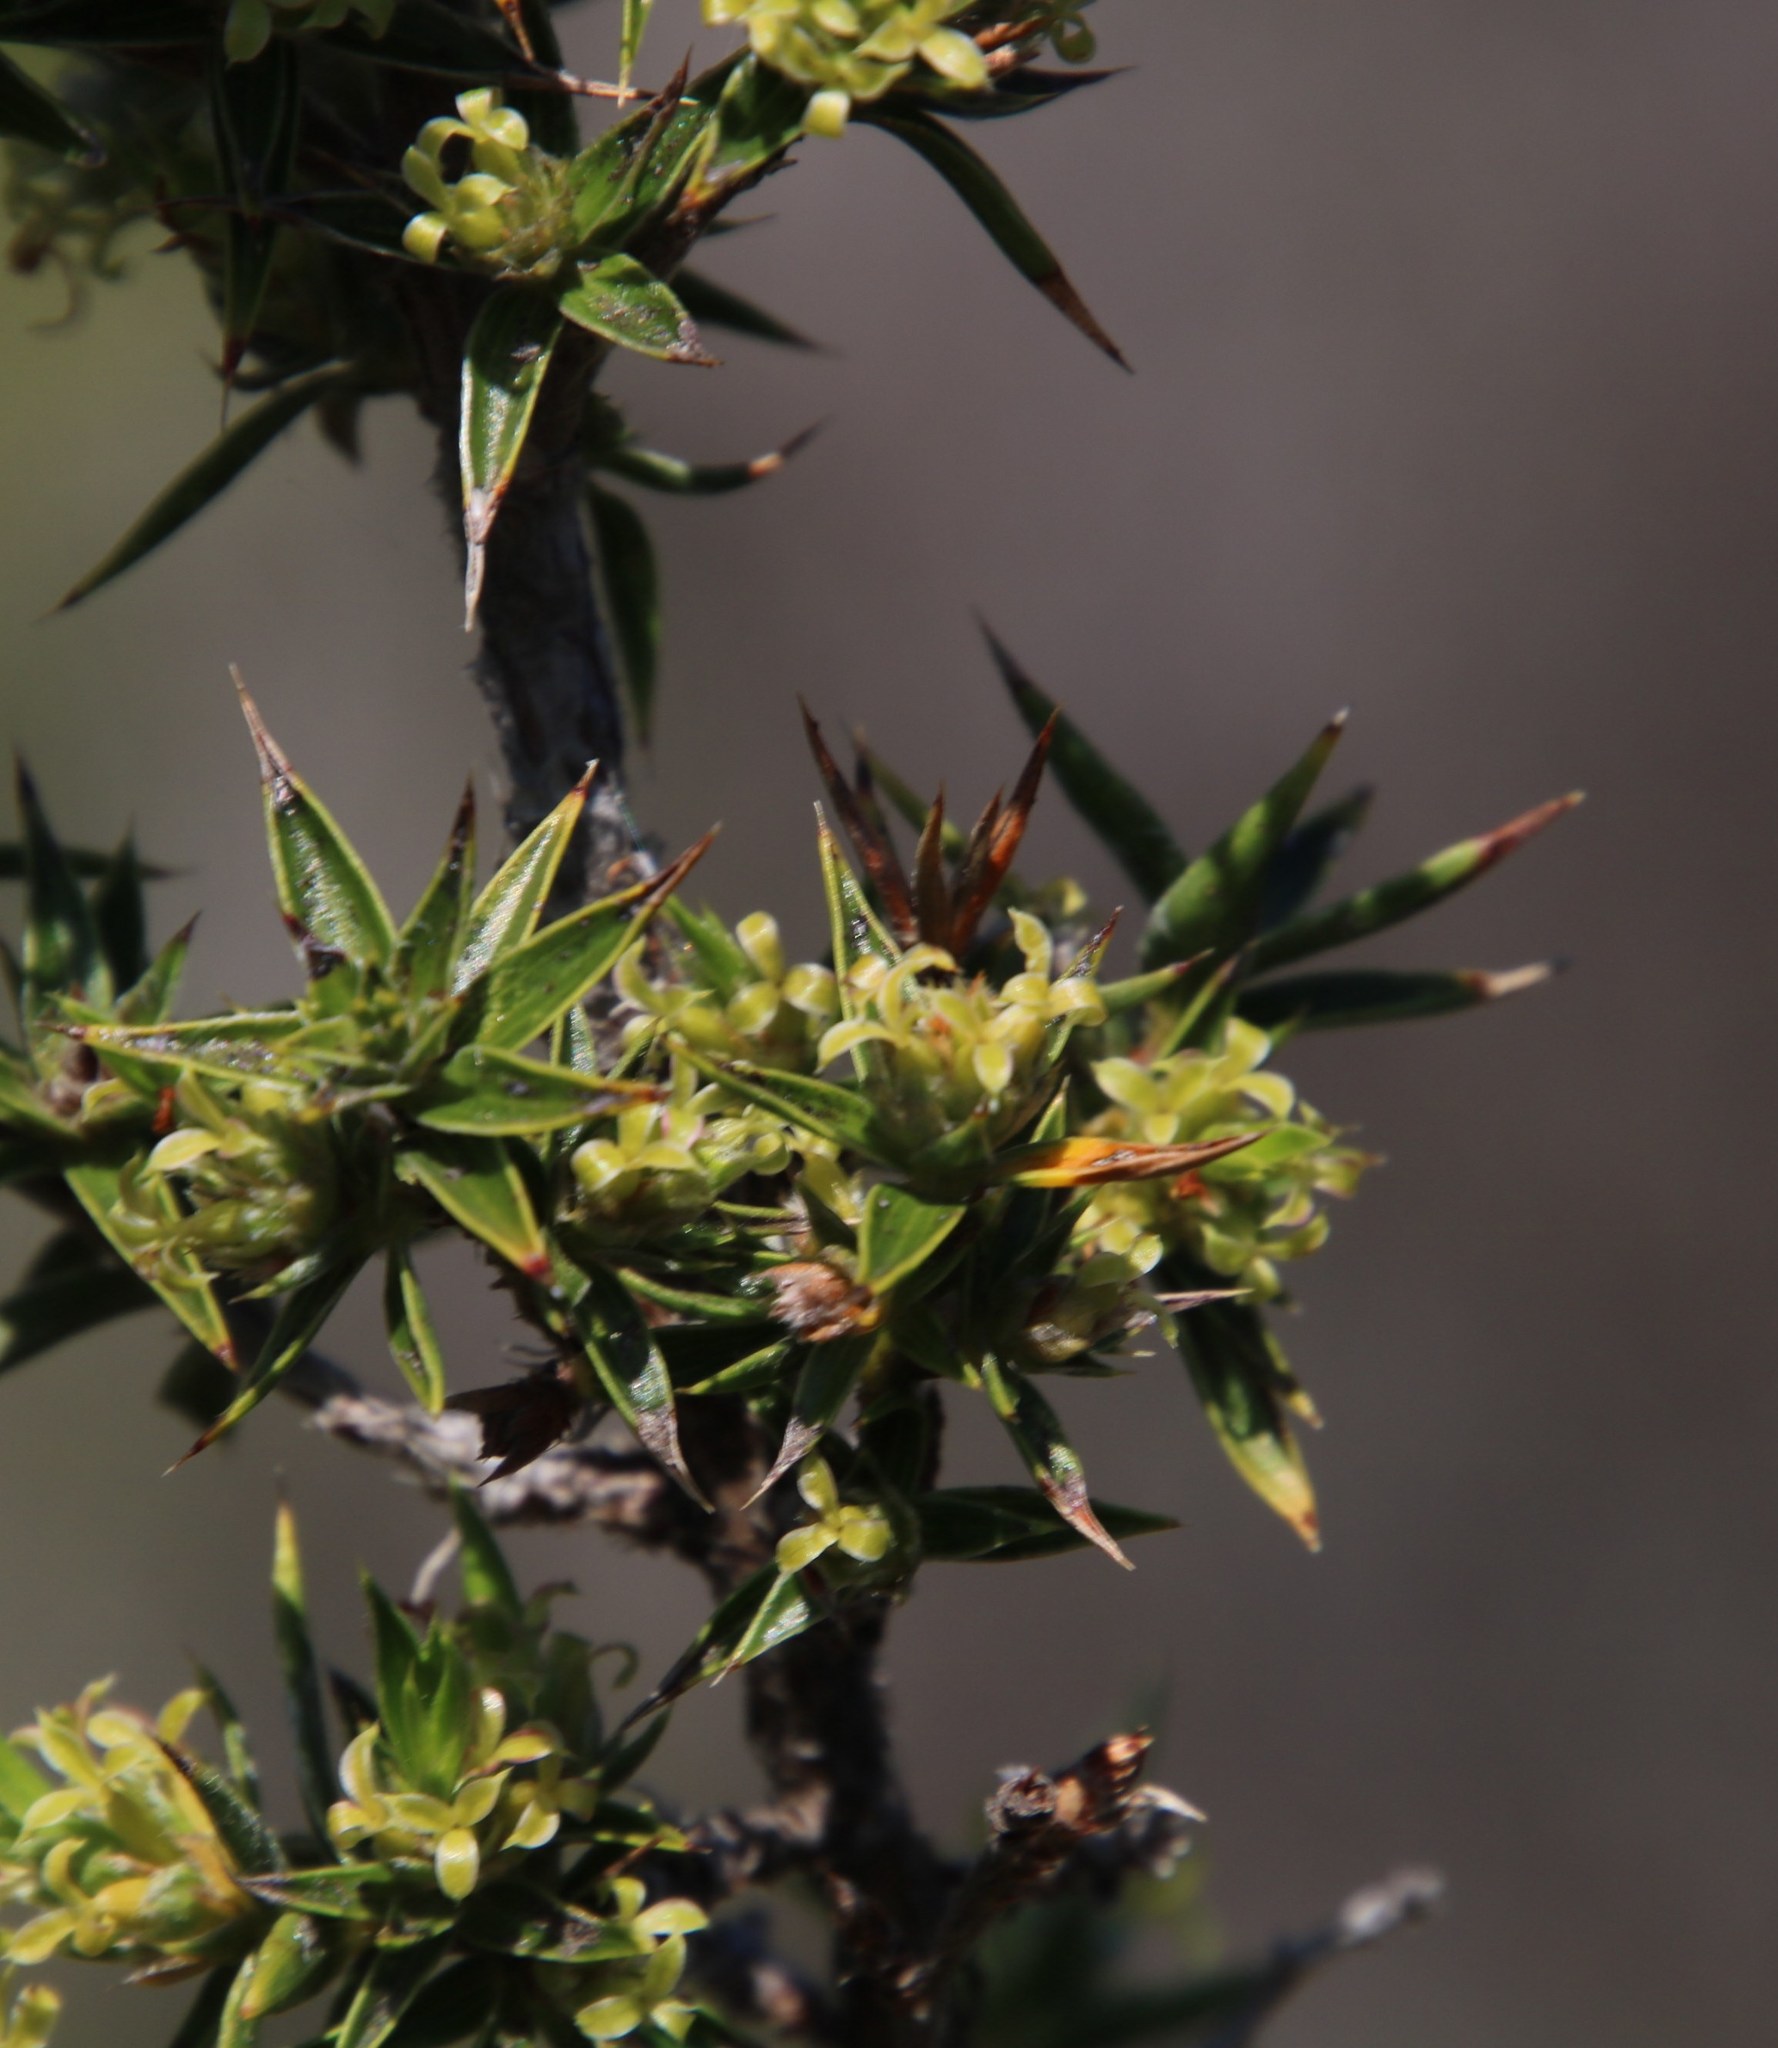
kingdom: Plantae
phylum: Tracheophyta
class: Magnoliopsida
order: Rosales
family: Rosaceae
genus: Cliffortia
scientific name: Cliffortia ruscifolia
